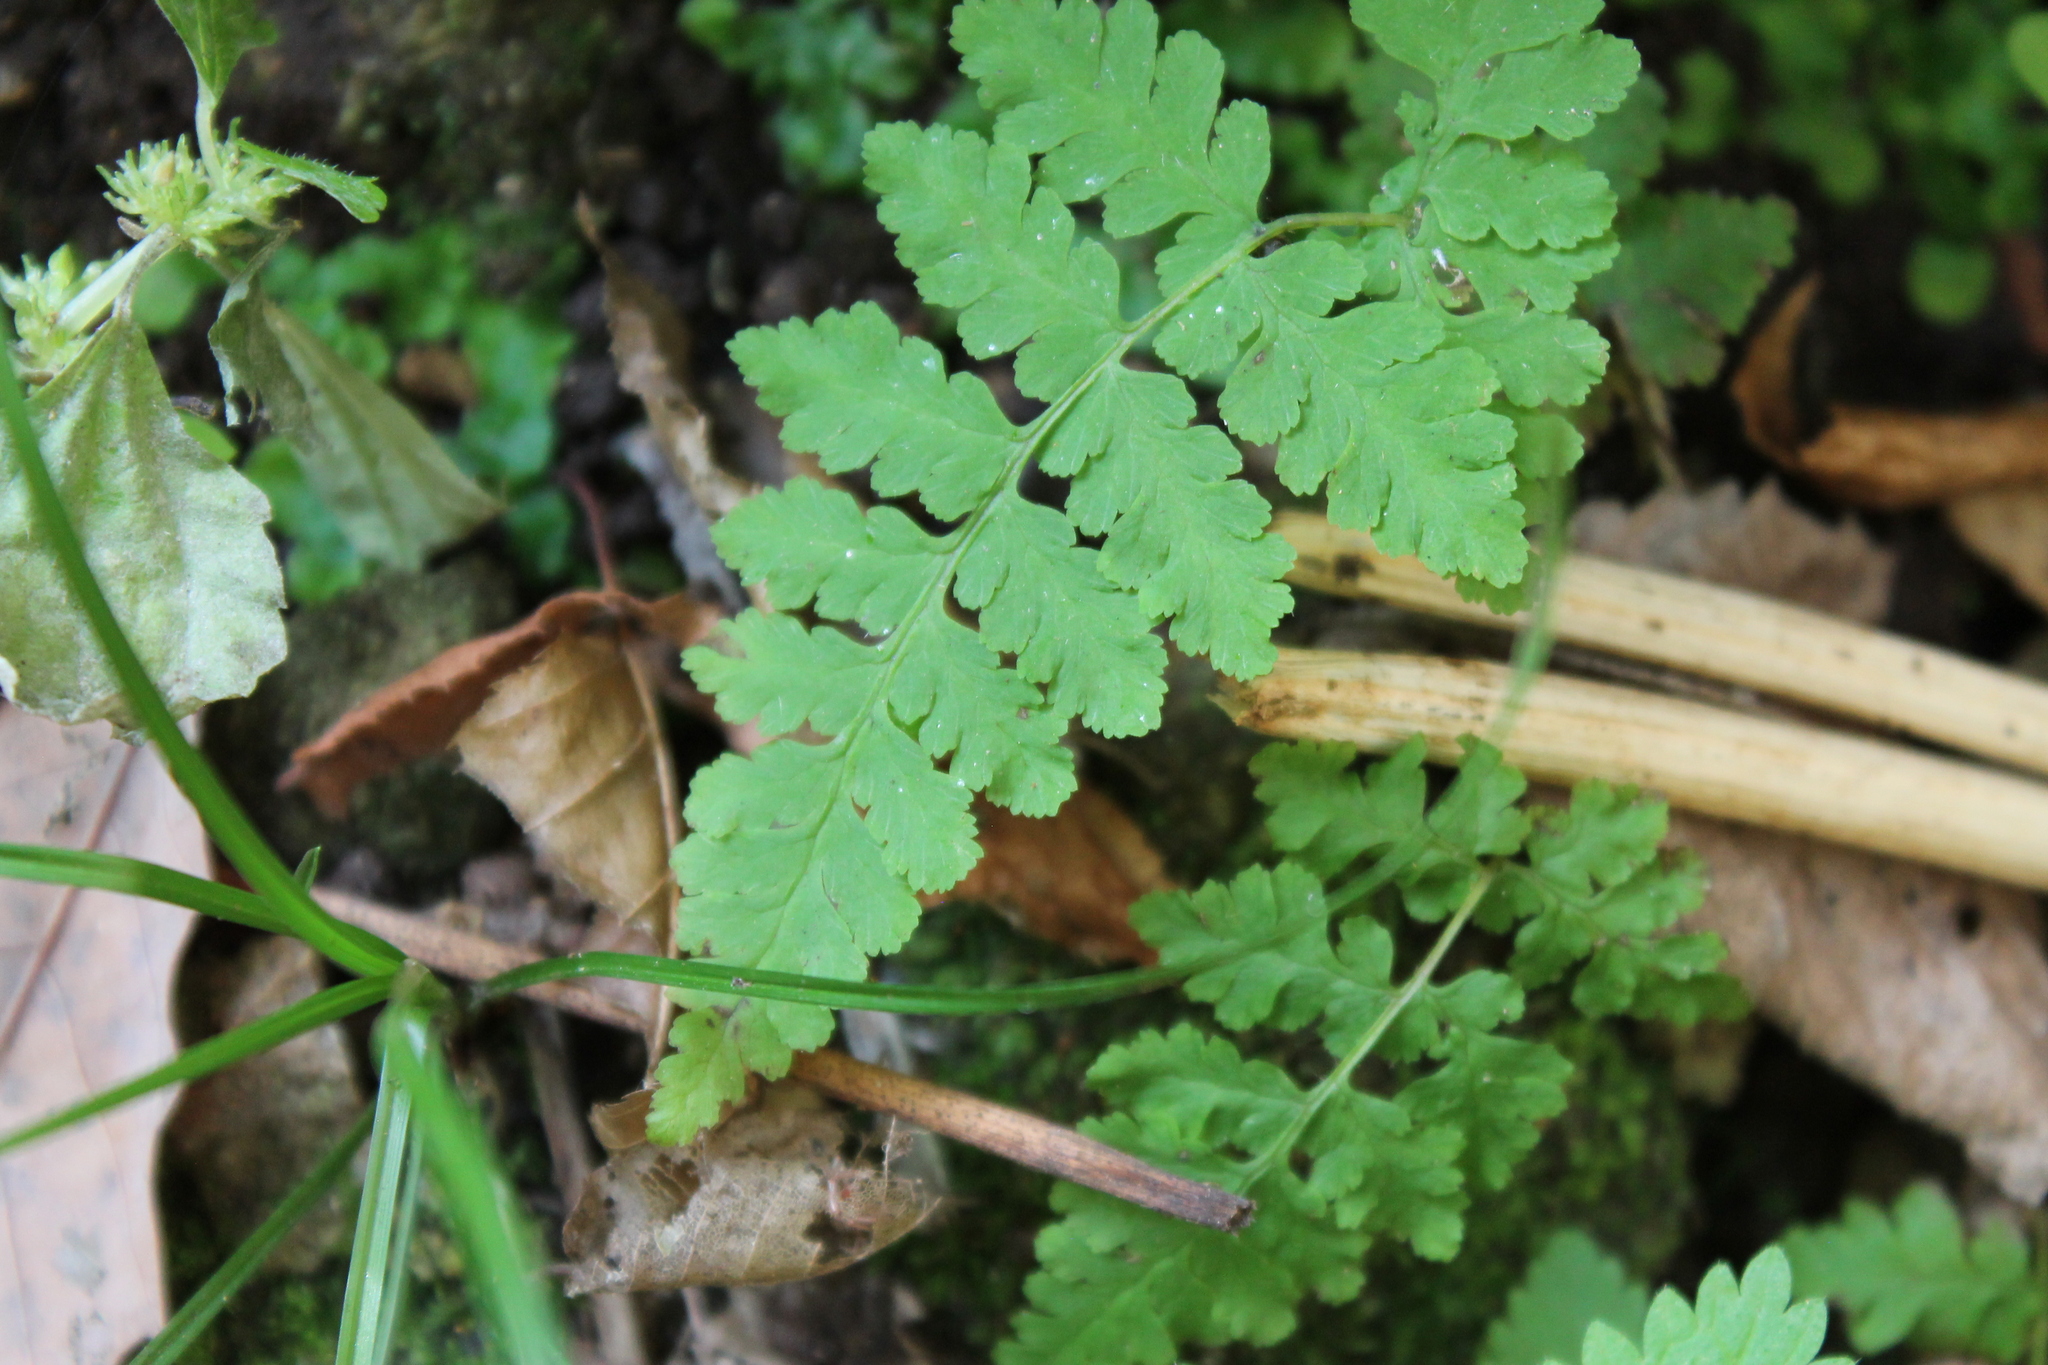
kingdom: Plantae
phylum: Tracheophyta
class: Polypodiopsida
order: Polypodiales
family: Cystopteridaceae
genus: Cystopteris
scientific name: Cystopteris bulbifera
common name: Bulblet bladder fern
